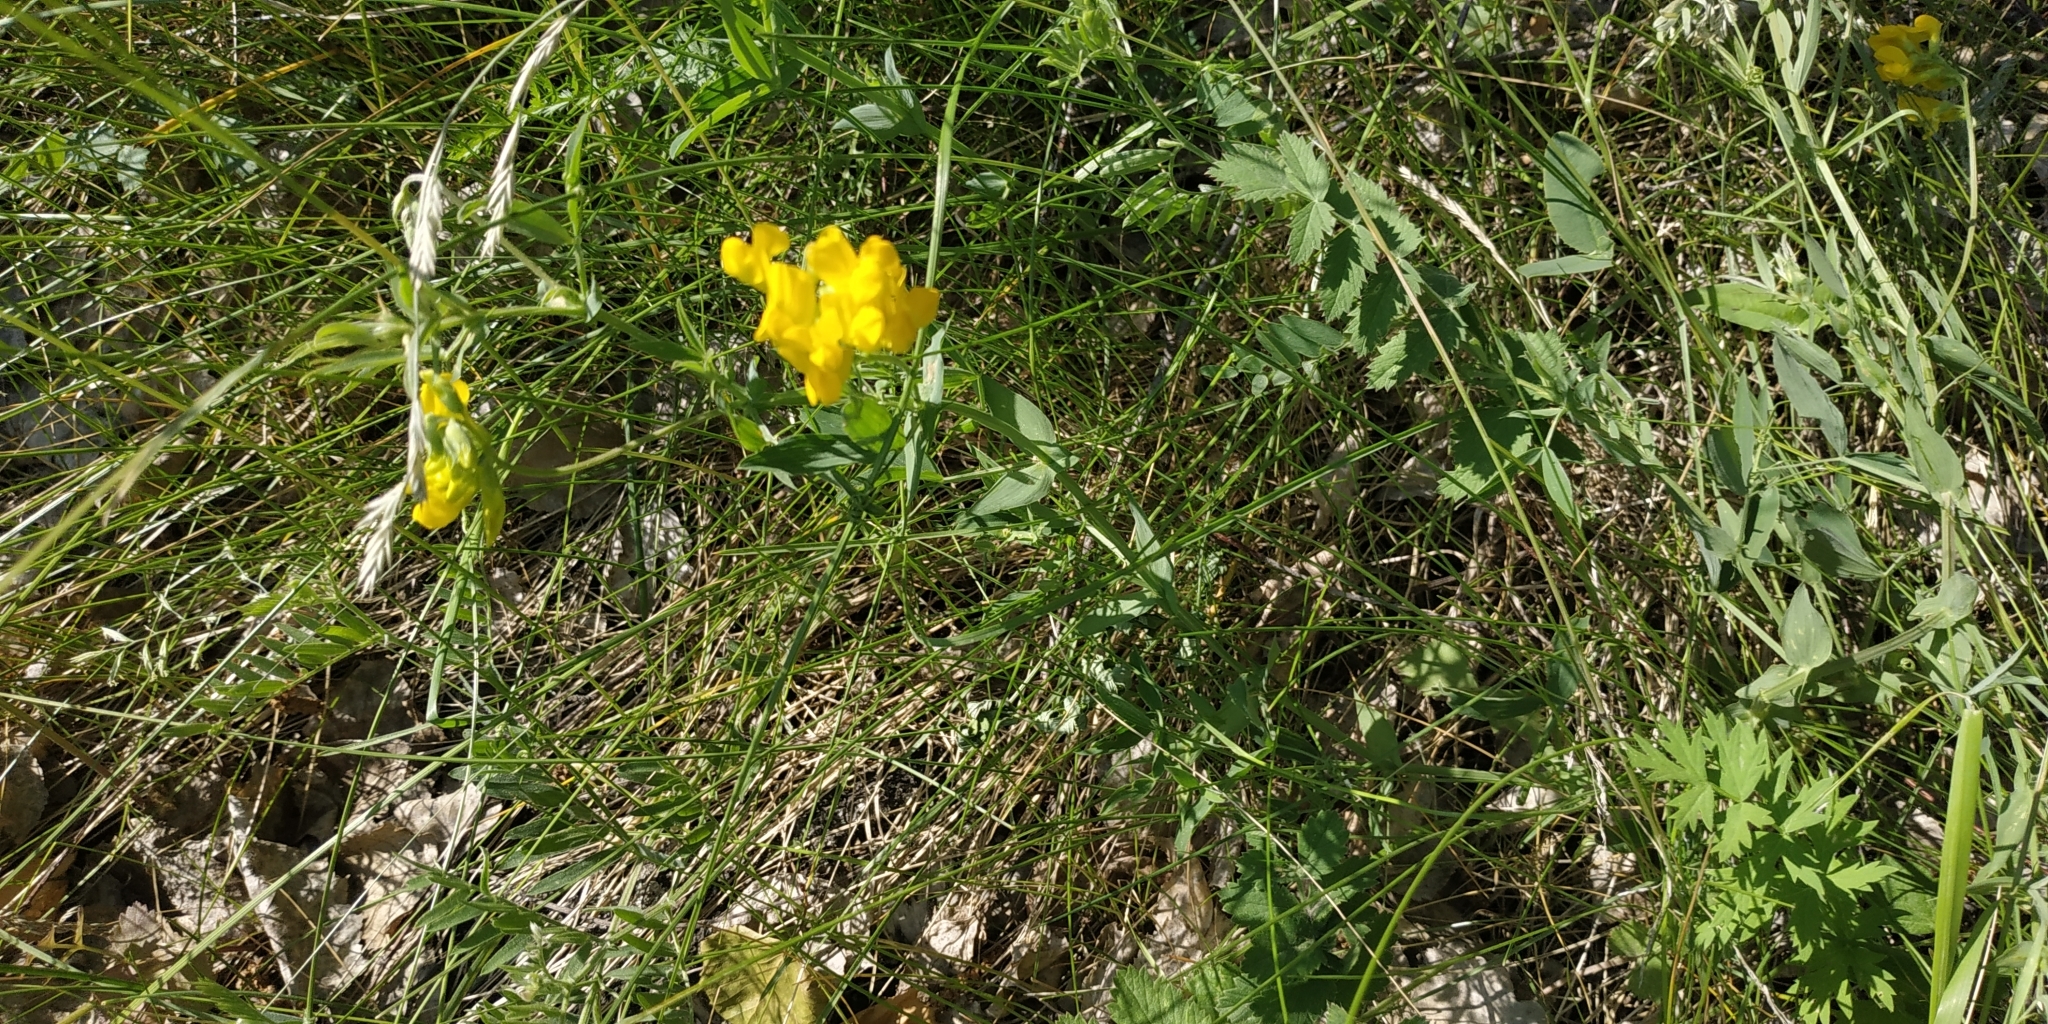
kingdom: Plantae
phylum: Tracheophyta
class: Magnoliopsida
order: Fabales
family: Fabaceae
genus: Lathyrus
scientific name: Lathyrus pratensis
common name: Meadow vetchling
